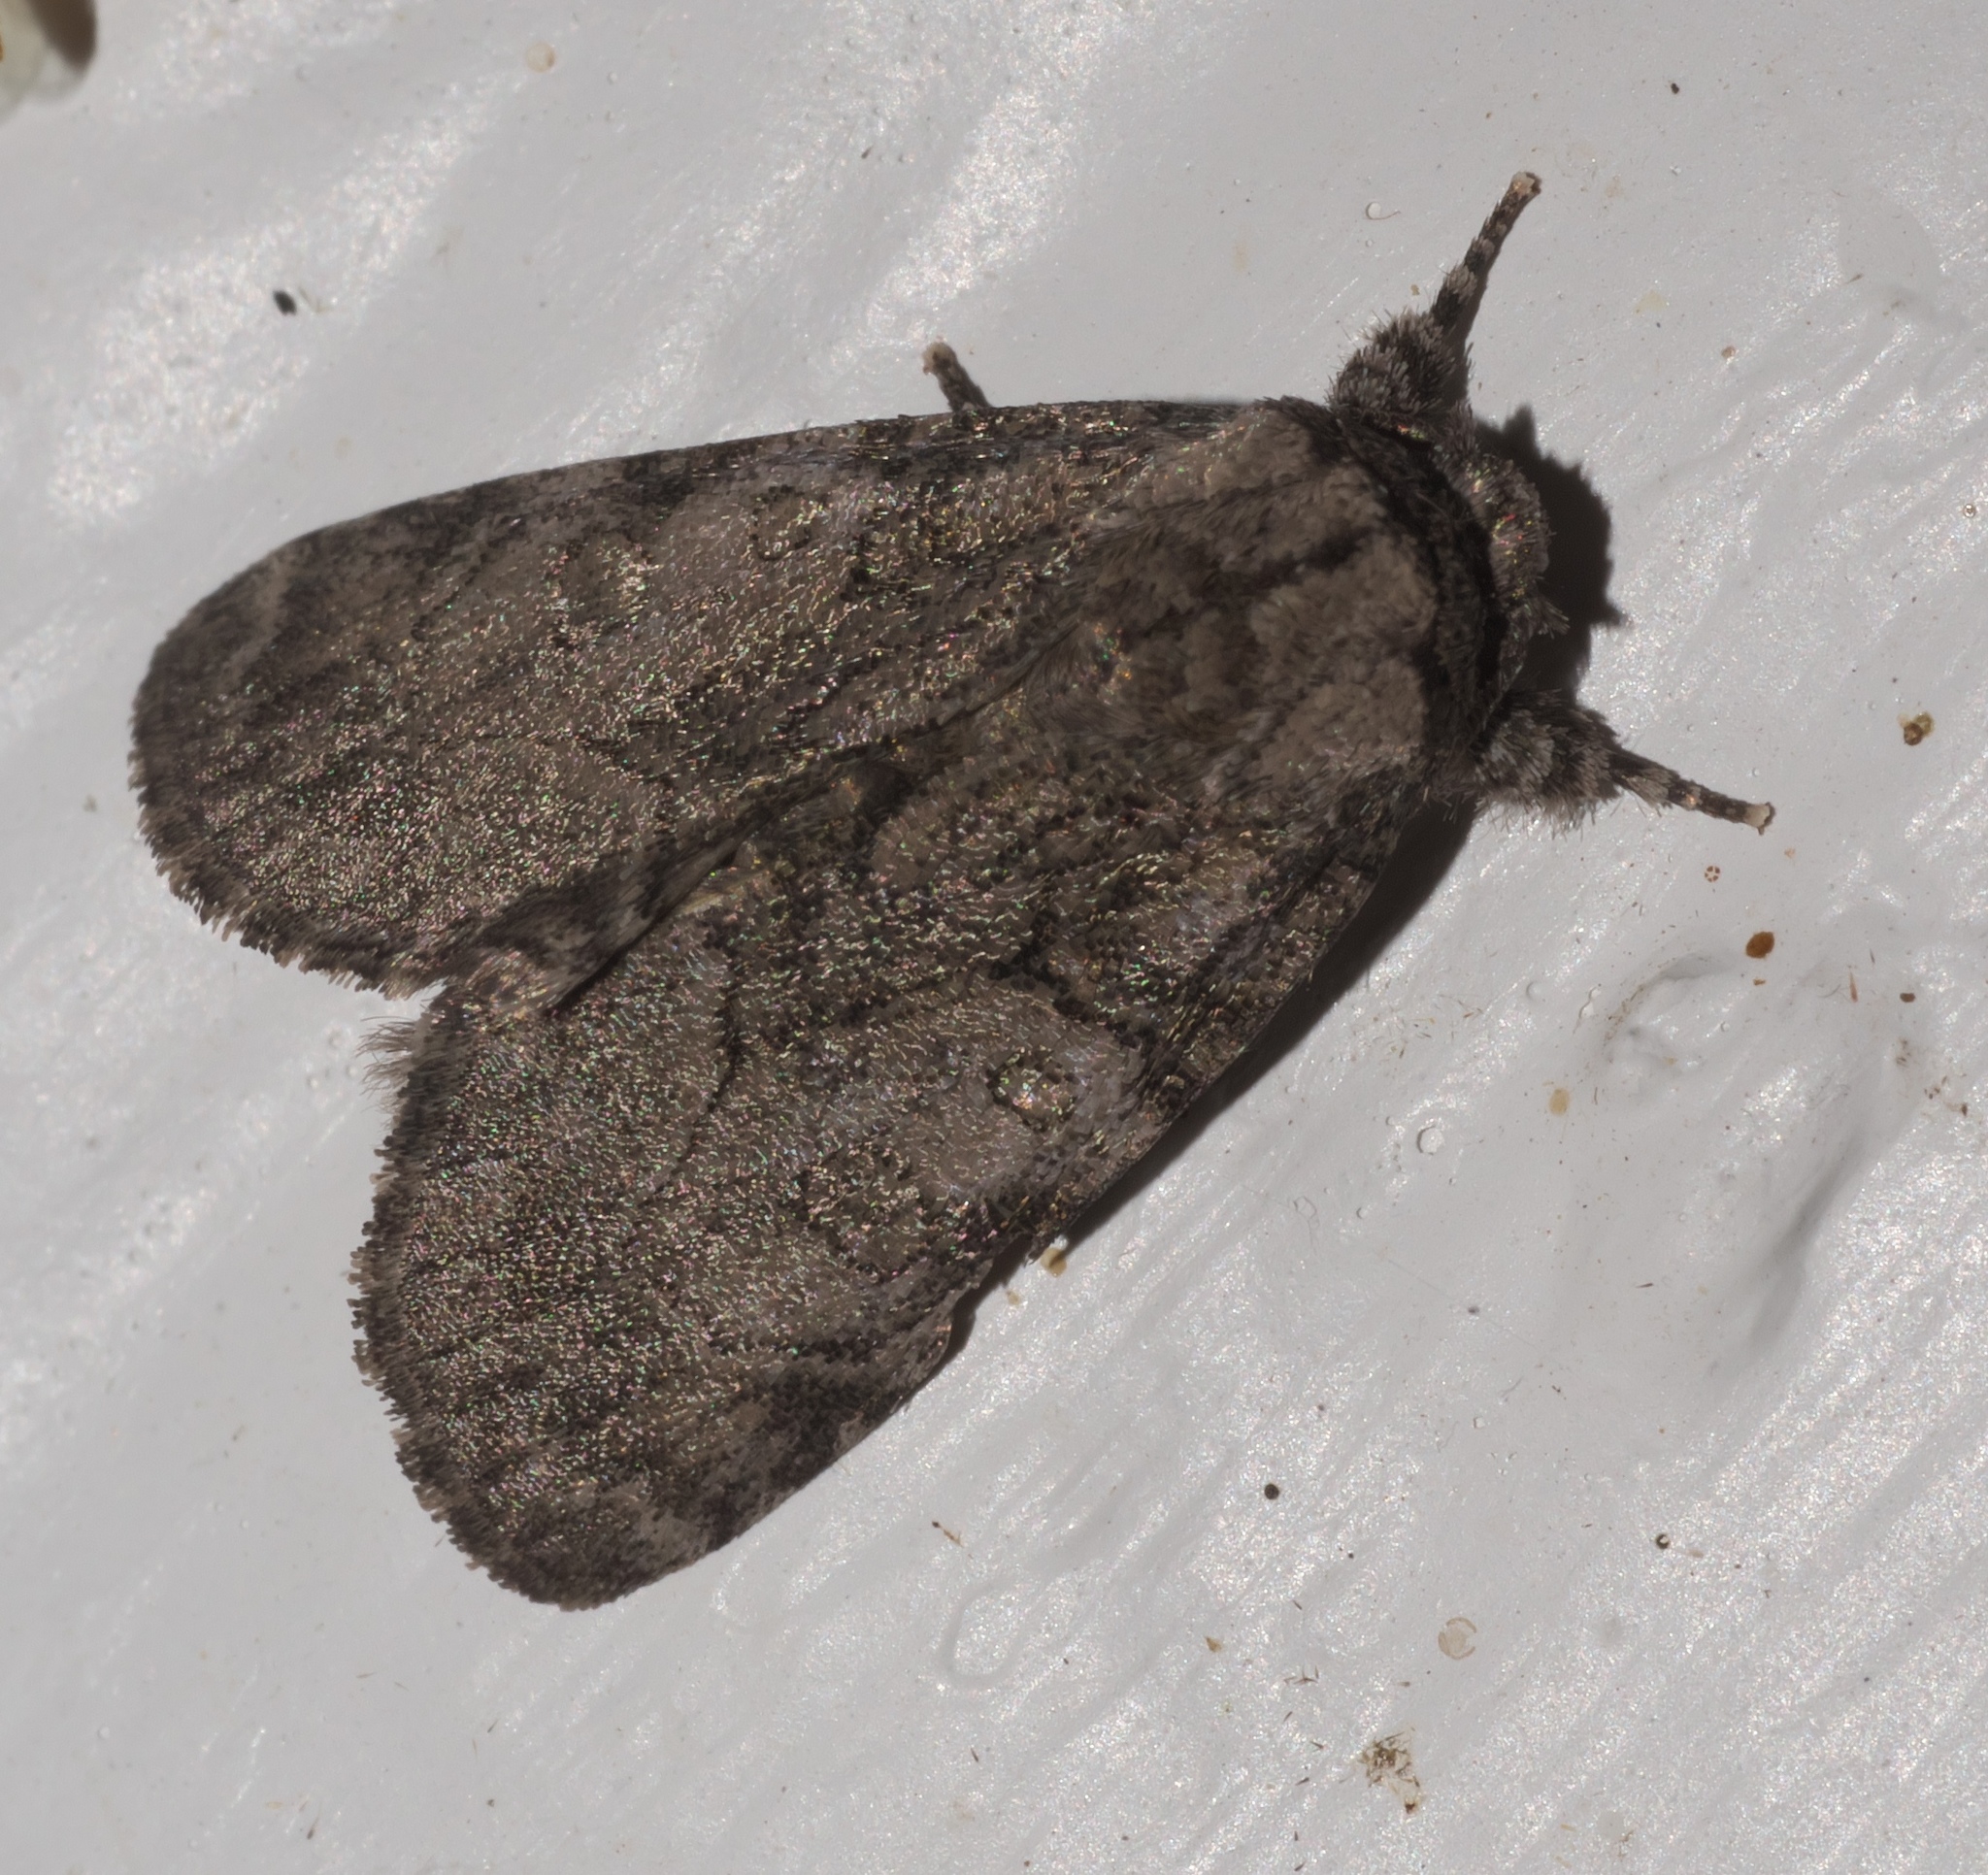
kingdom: Animalia
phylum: Arthropoda
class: Insecta
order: Lepidoptera
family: Noctuidae
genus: Raphia
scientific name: Raphia frater
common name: Brother
